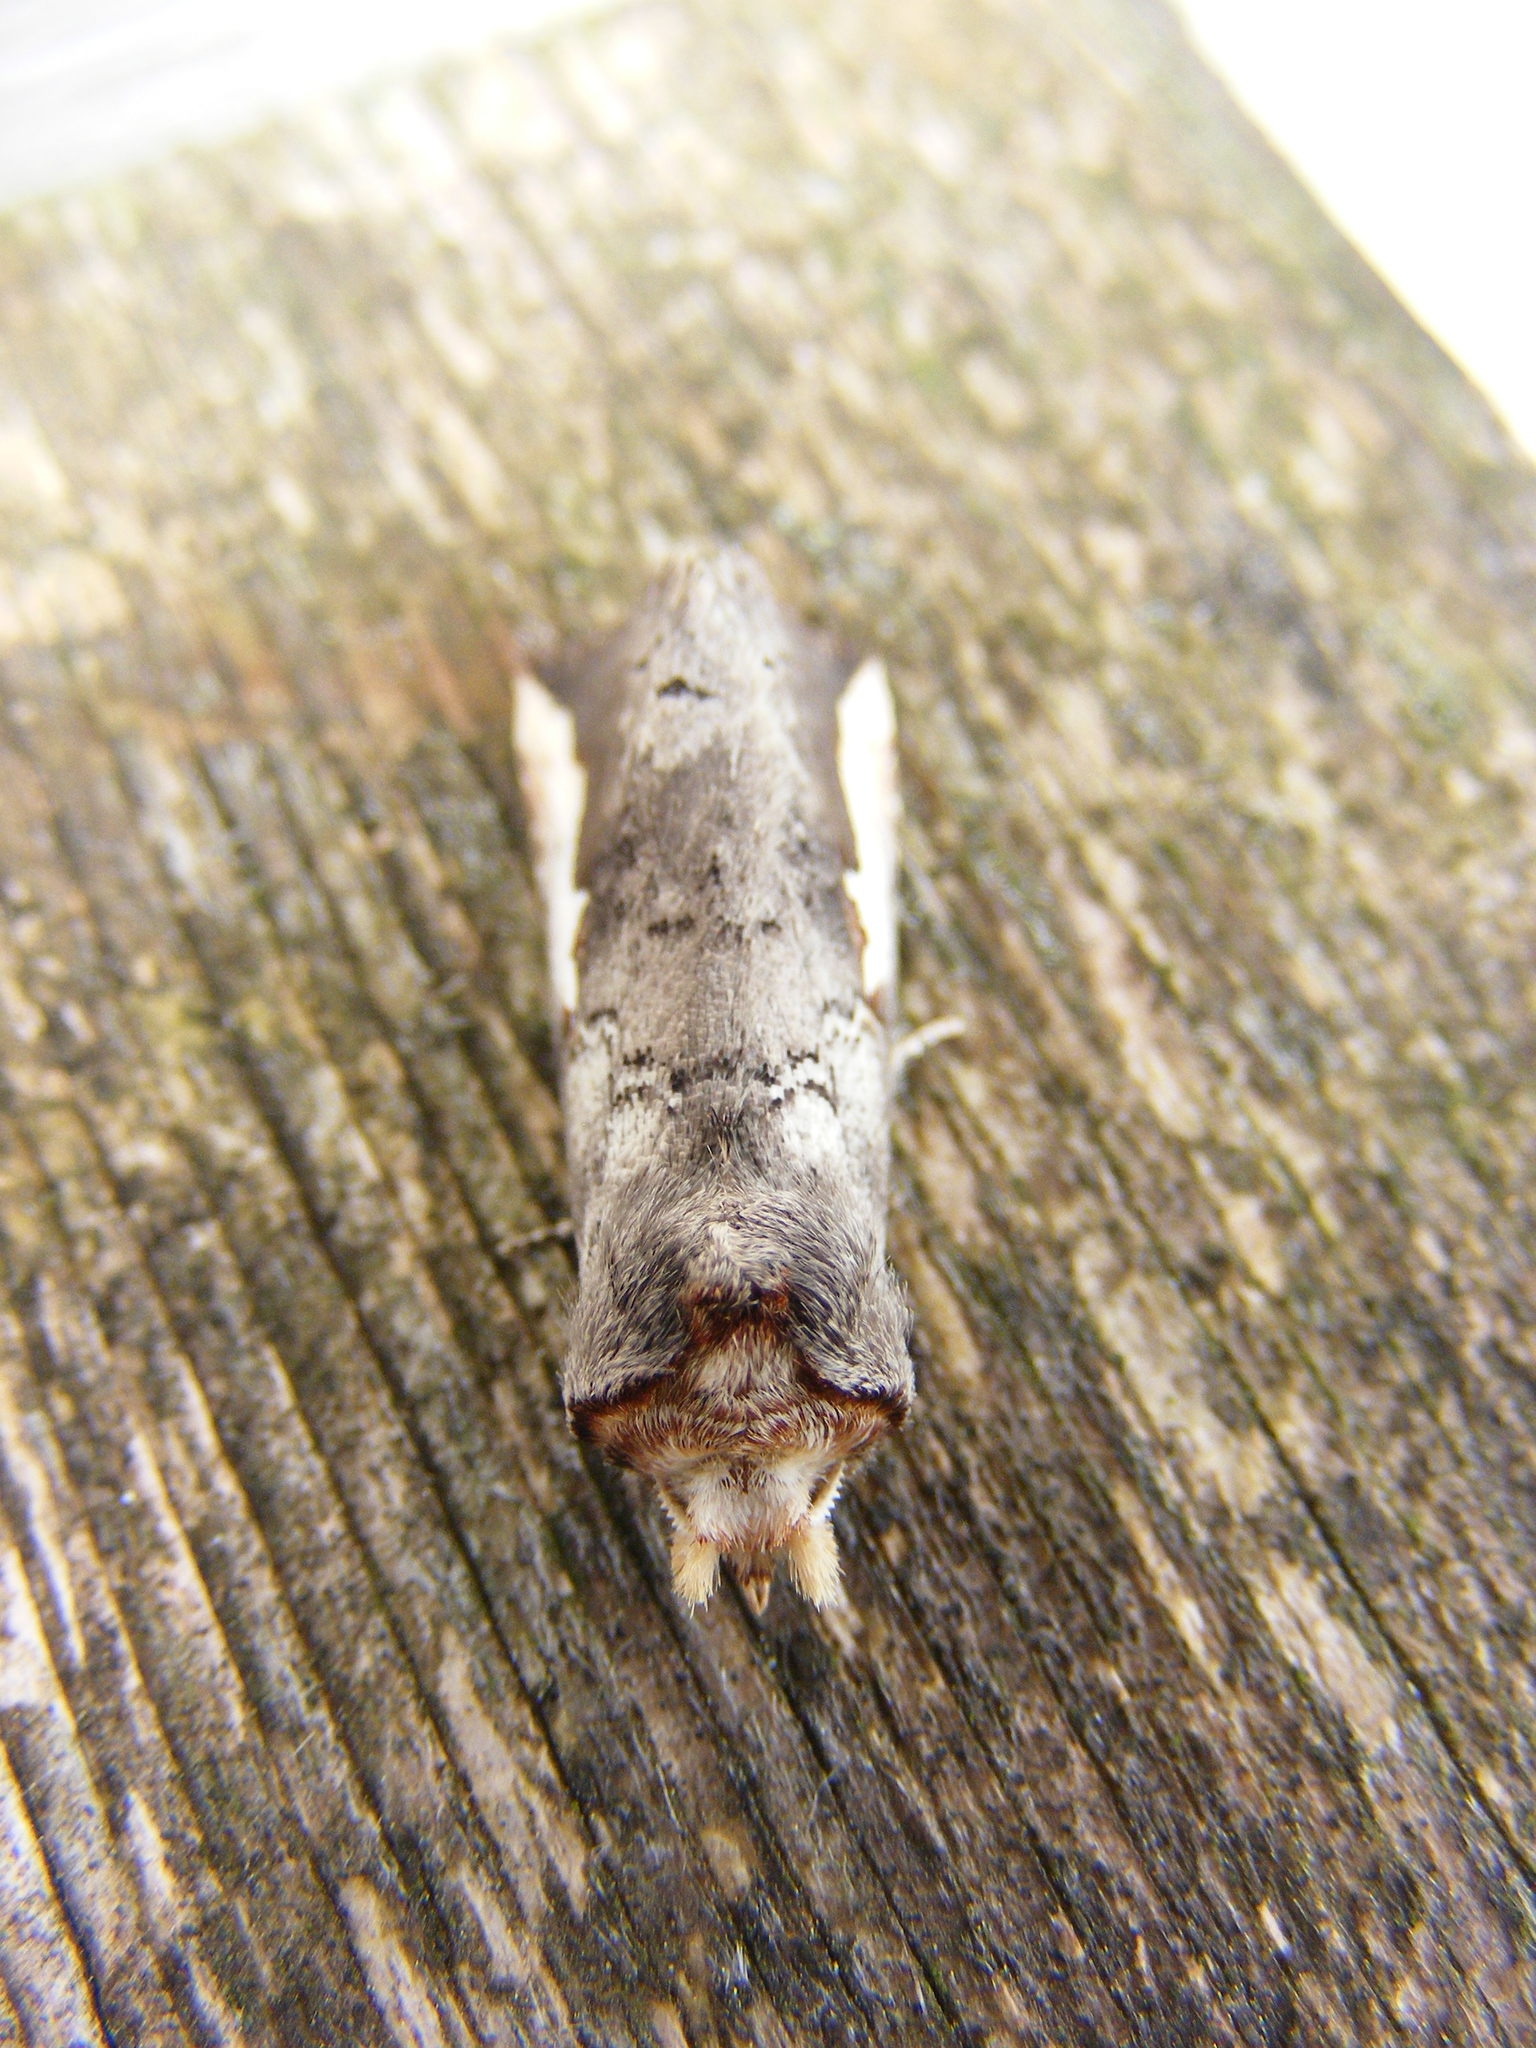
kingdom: Animalia
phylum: Arthropoda
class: Insecta
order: Lepidoptera
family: Notodontidae
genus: Symmerista
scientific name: Symmerista
